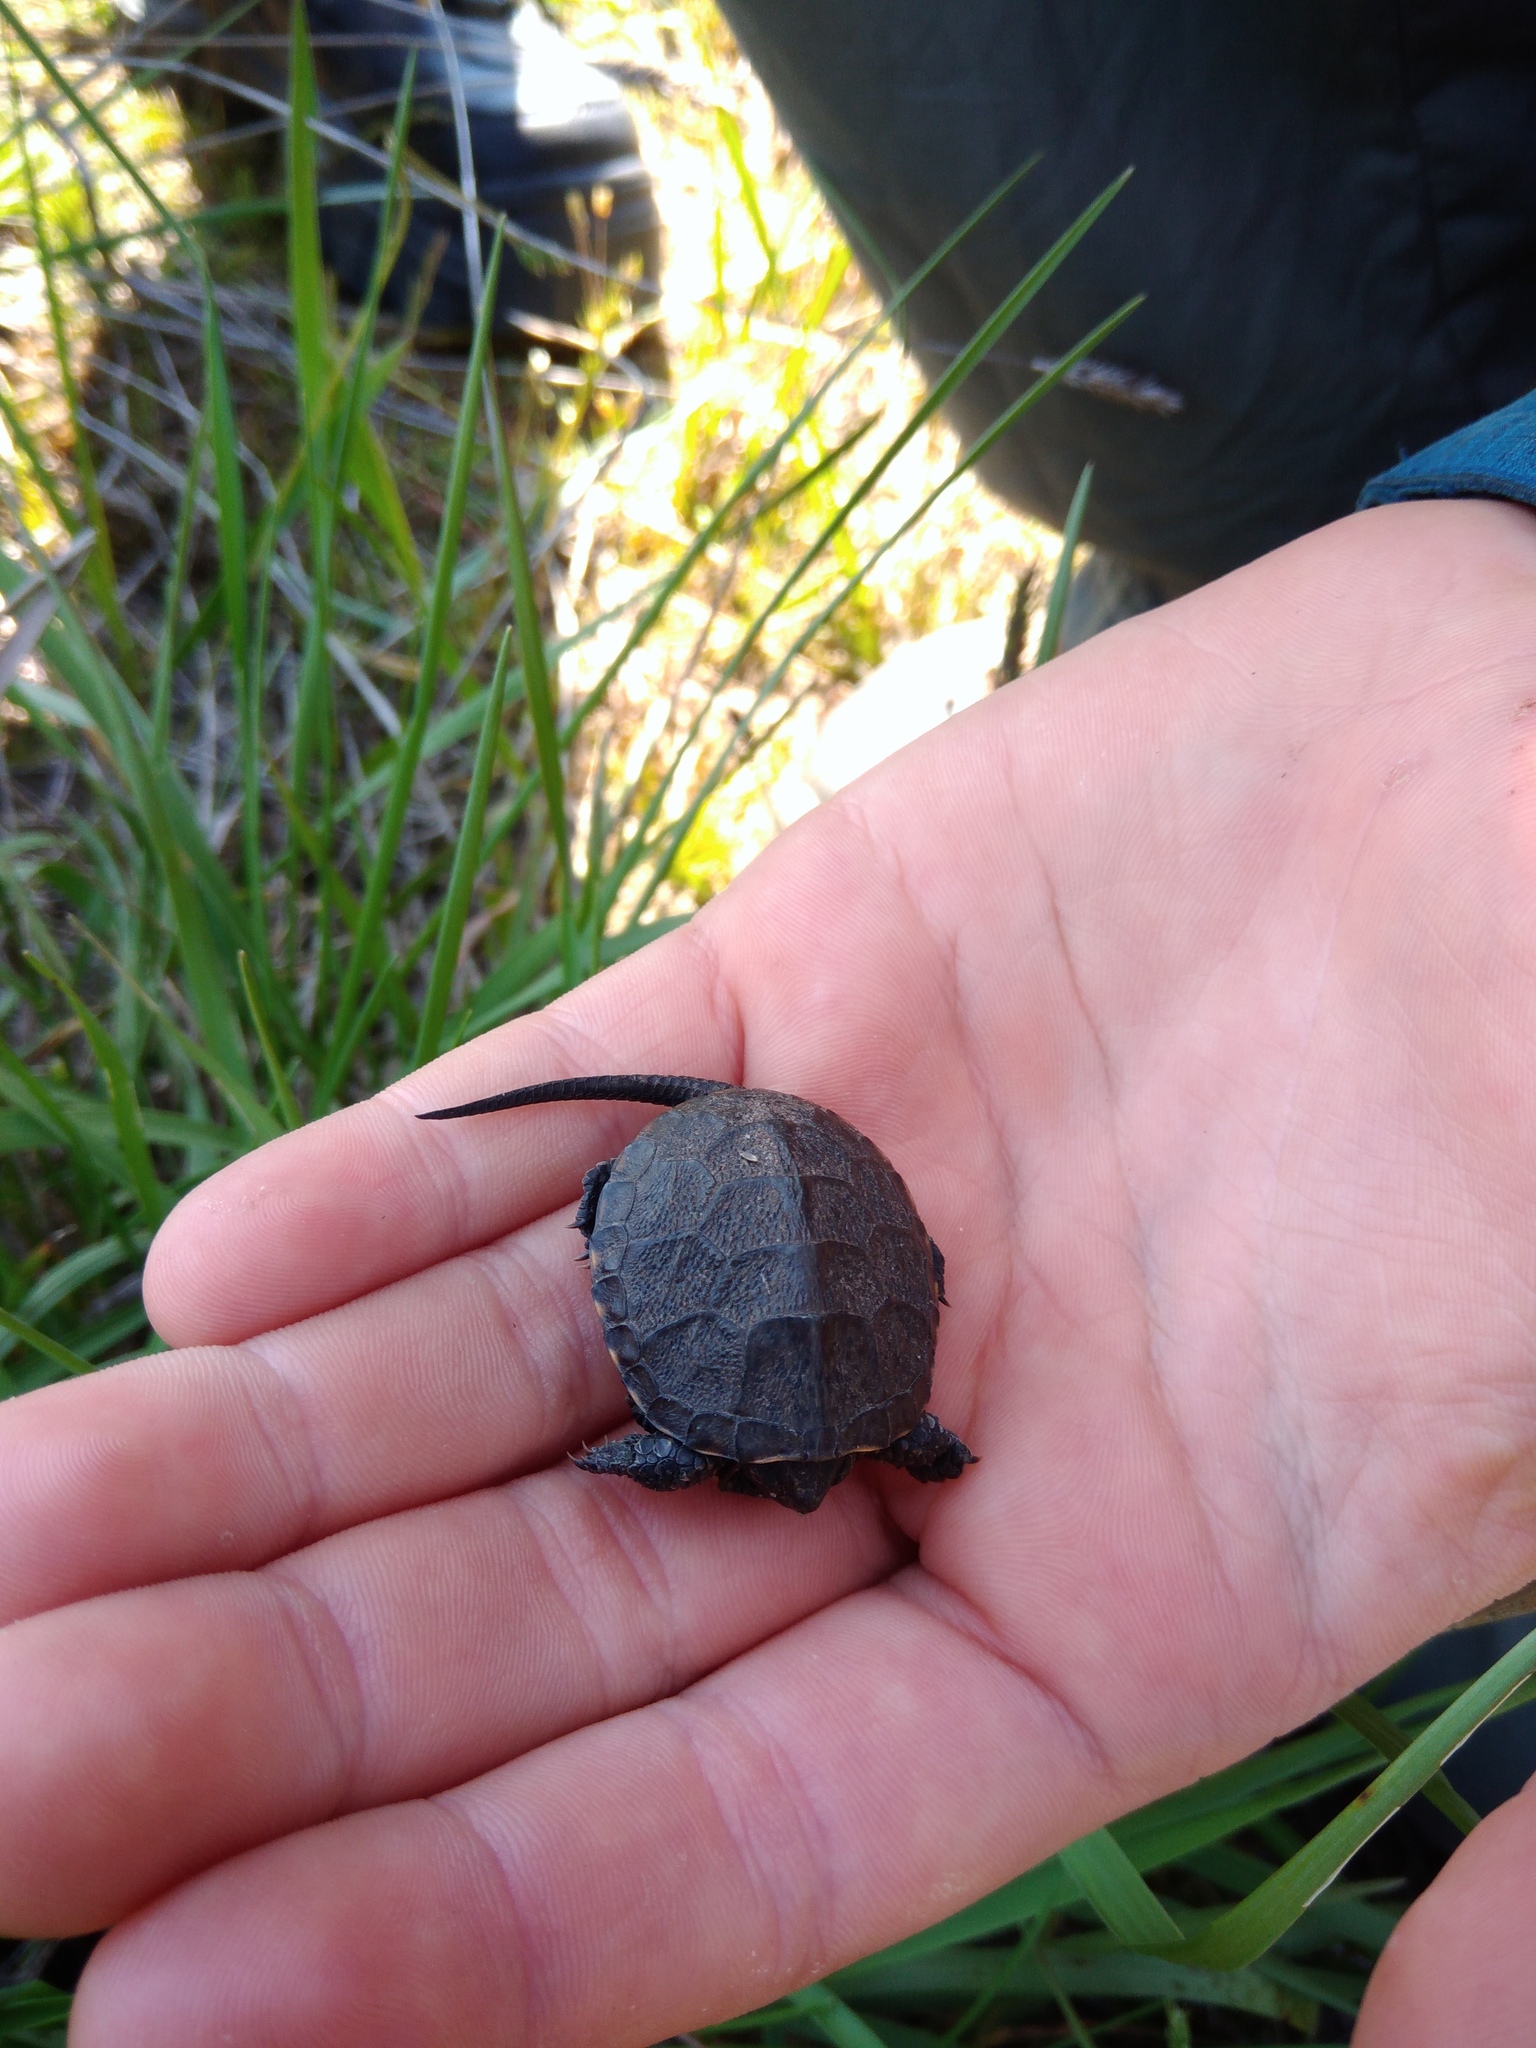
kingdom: Animalia
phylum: Chordata
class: Testudines
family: Emydidae
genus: Emys
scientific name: Emys orbicularis
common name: European pond turtle
